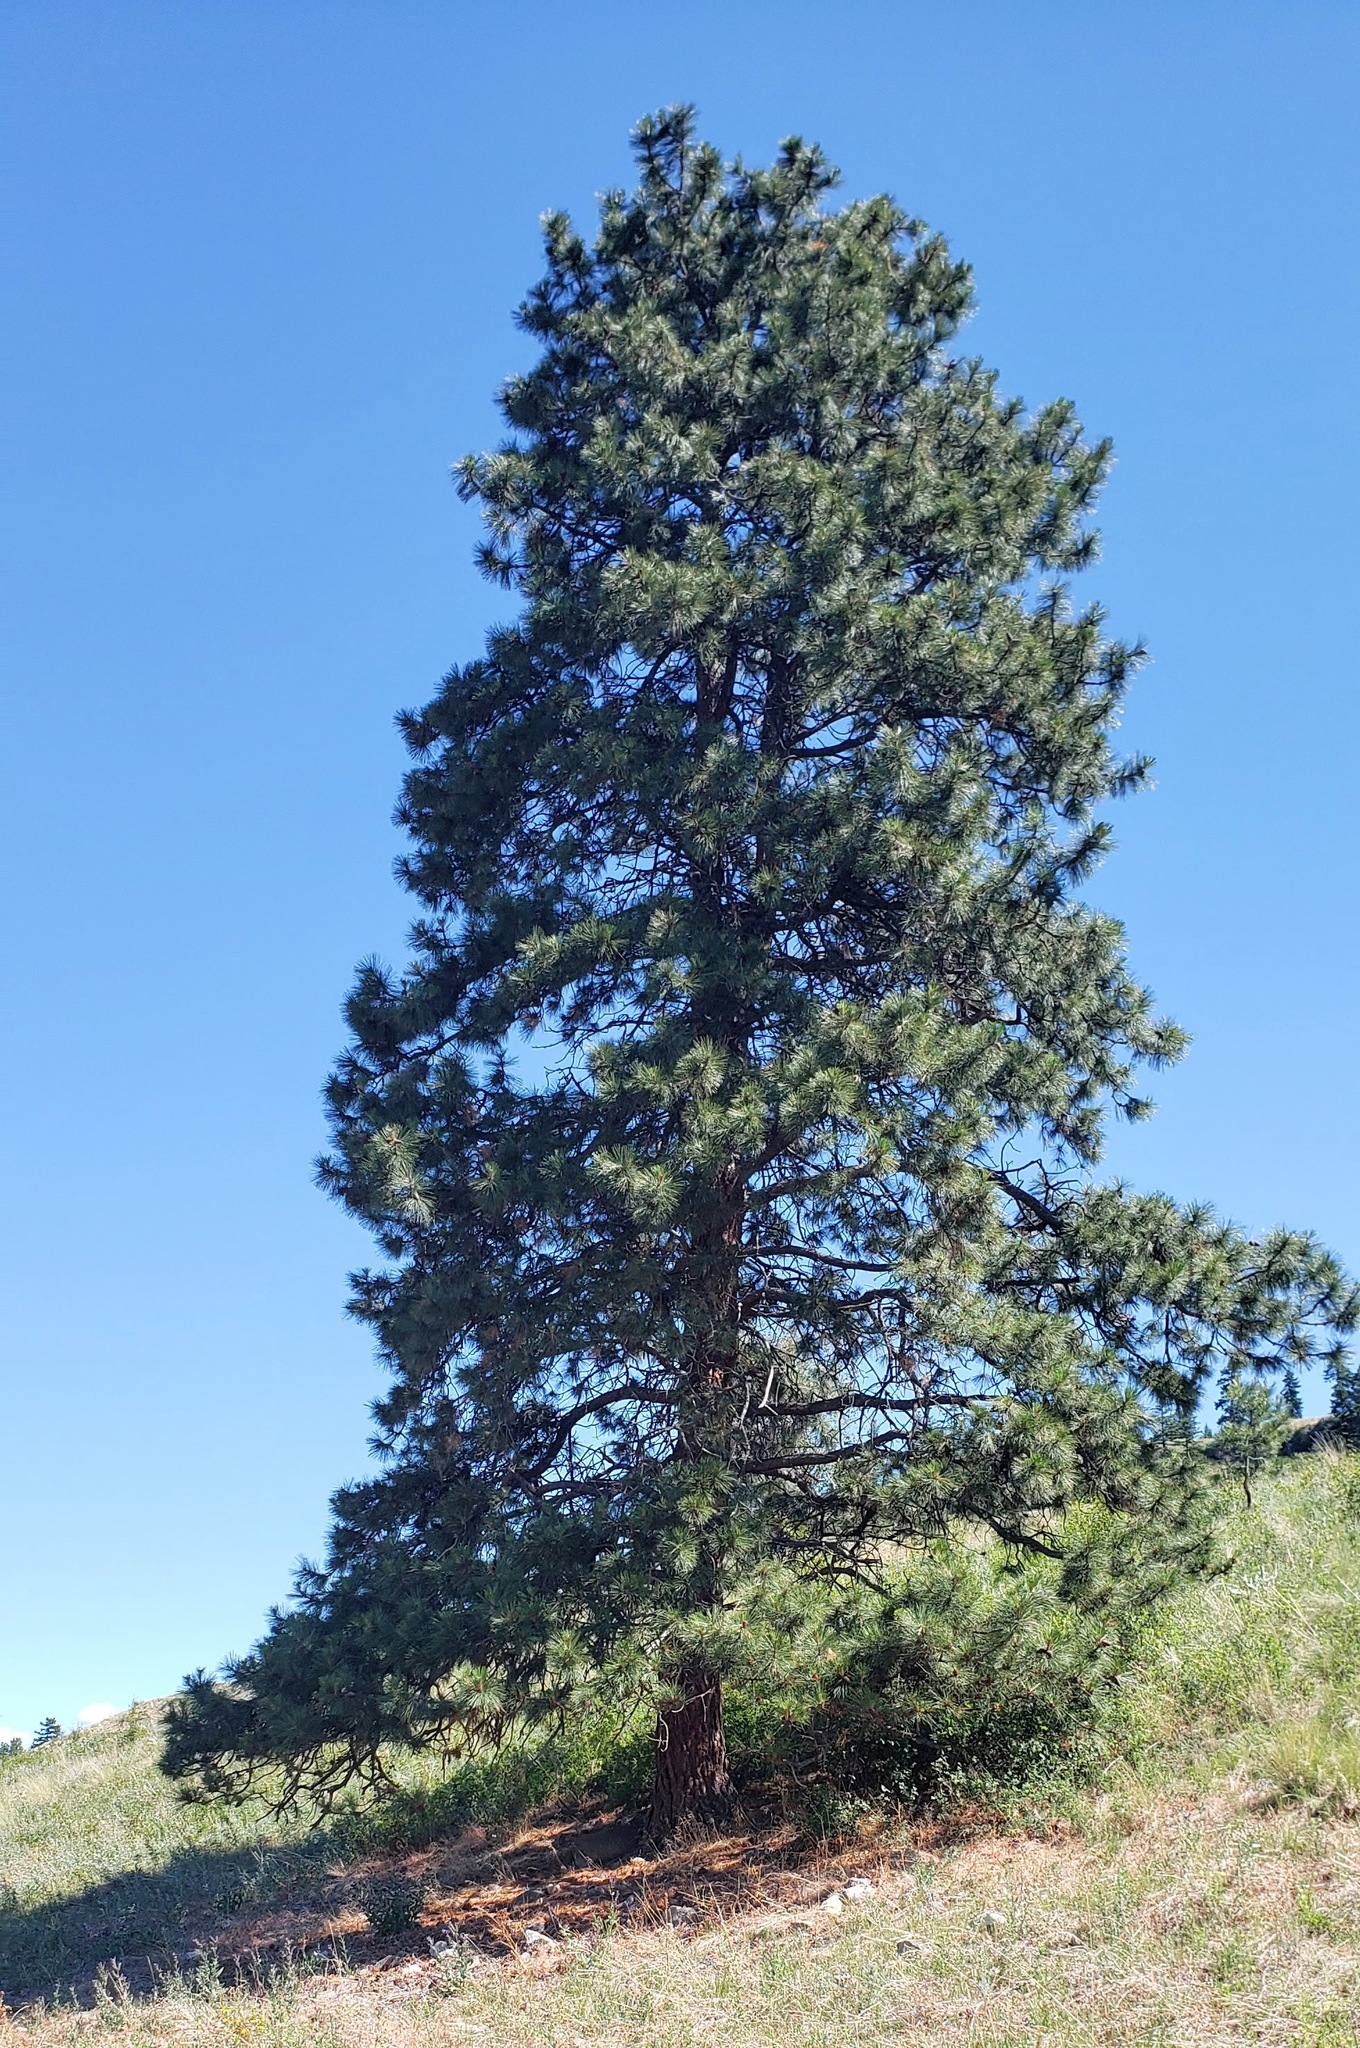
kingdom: Plantae
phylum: Tracheophyta
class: Pinopsida
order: Pinales
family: Pinaceae
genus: Pinus
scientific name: Pinus ponderosa
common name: Western yellow-pine
